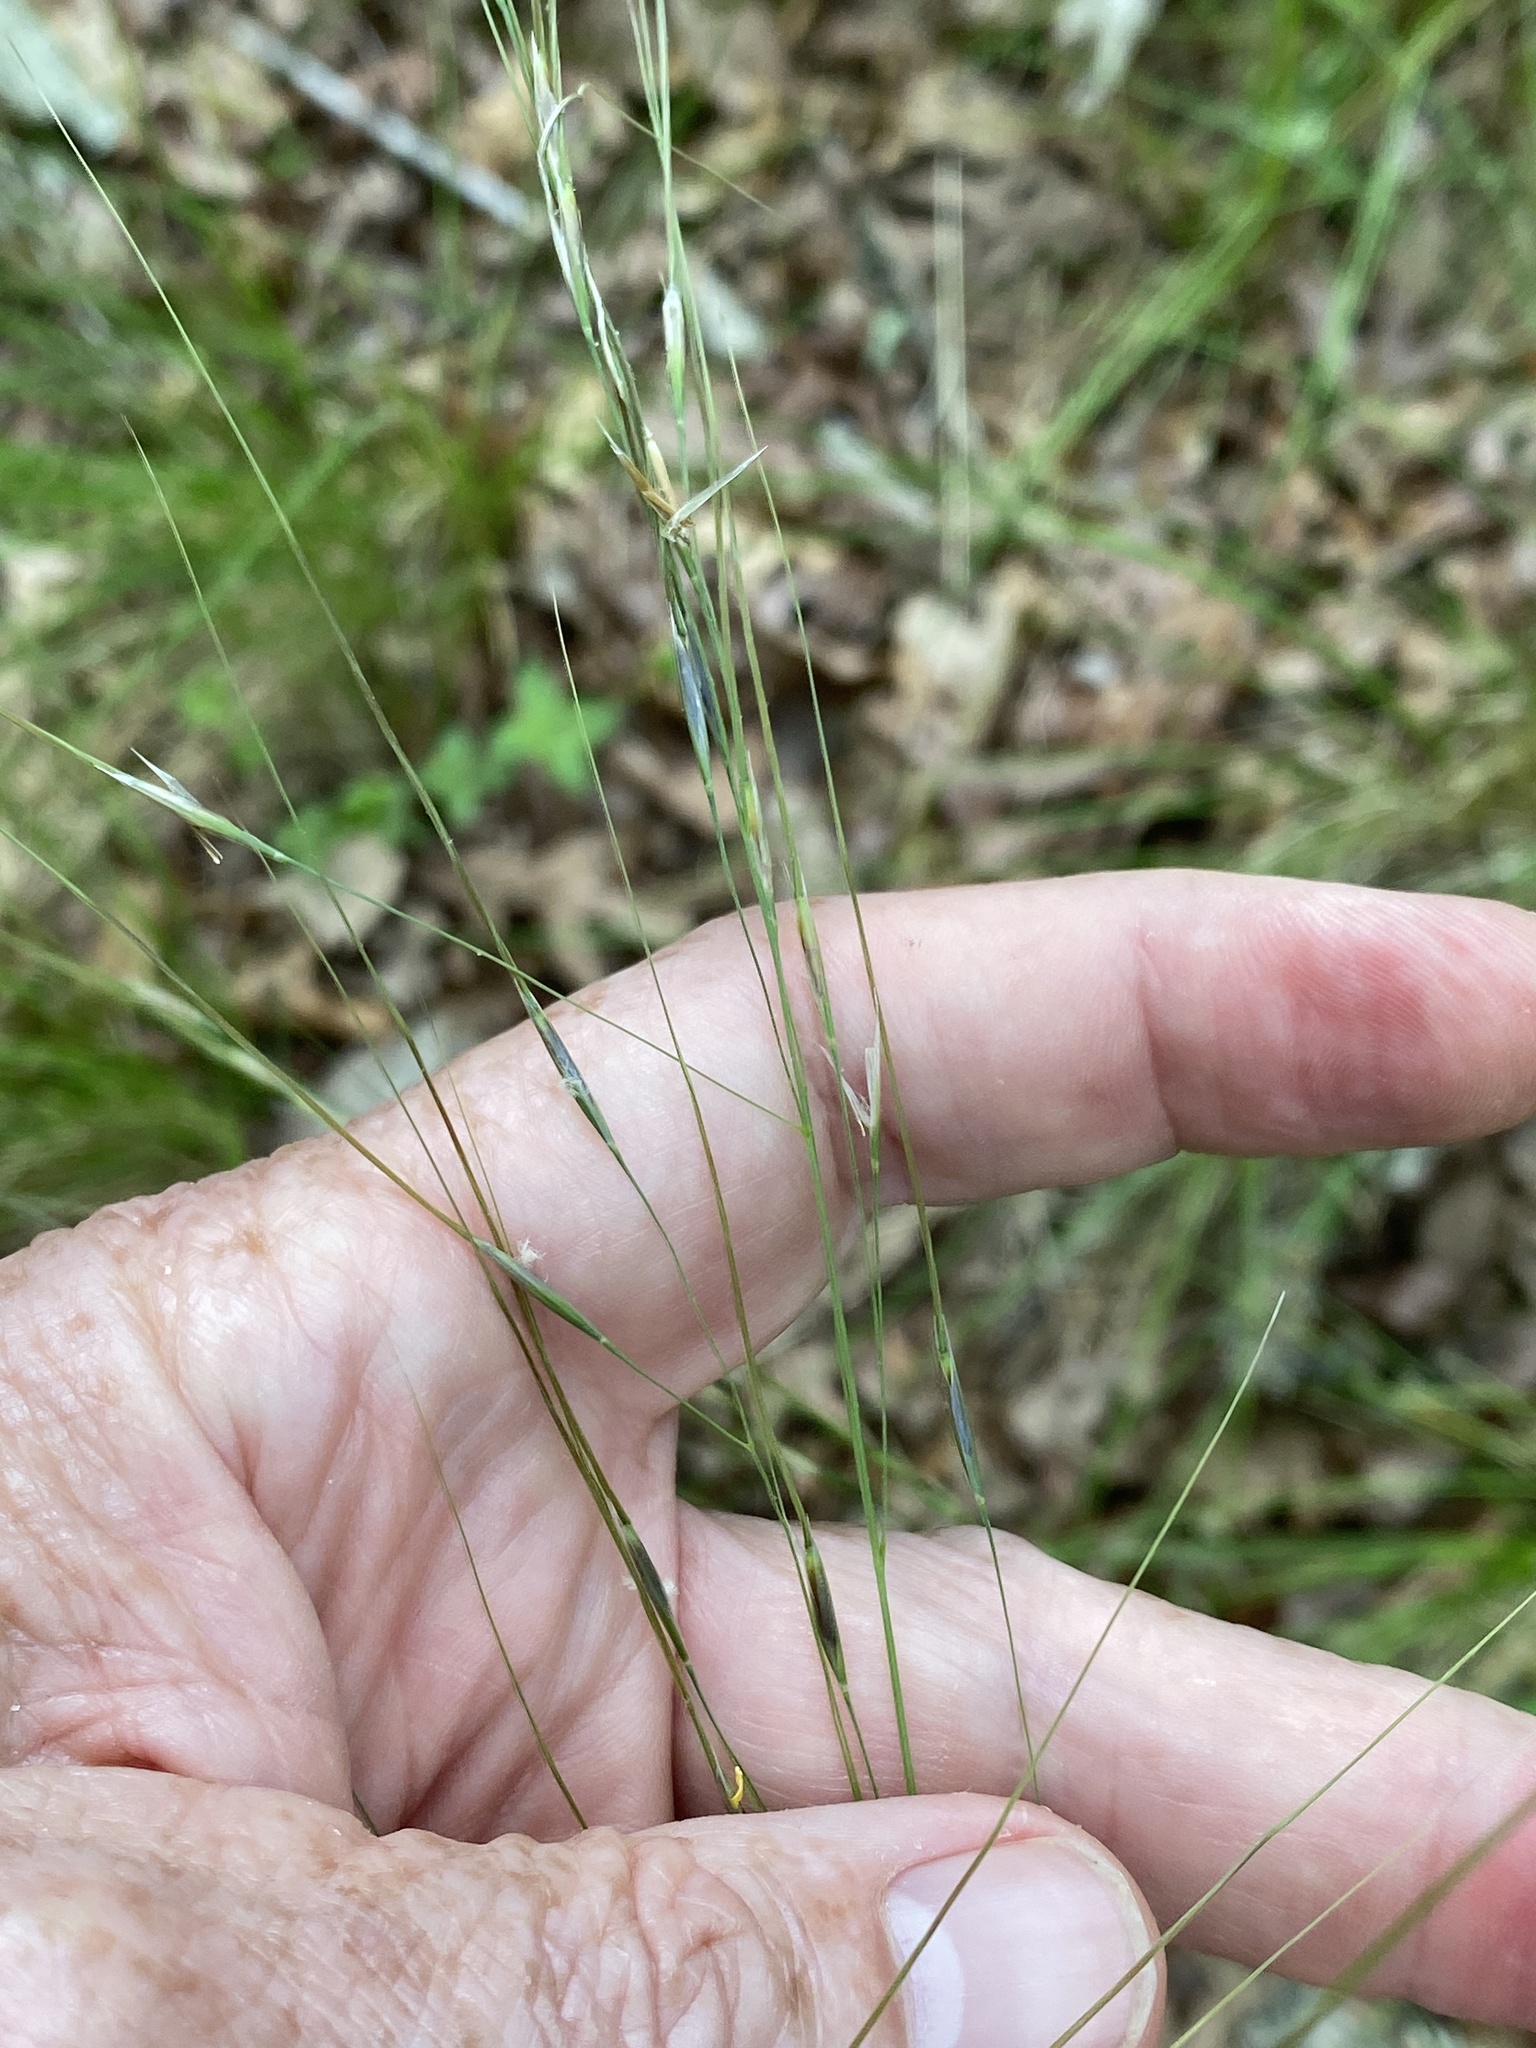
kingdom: Plantae
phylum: Tracheophyta
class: Liliopsida
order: Poales
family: Poaceae
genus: Piptochaetium
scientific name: Piptochaetium avenaceum
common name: Black bunchgrass
